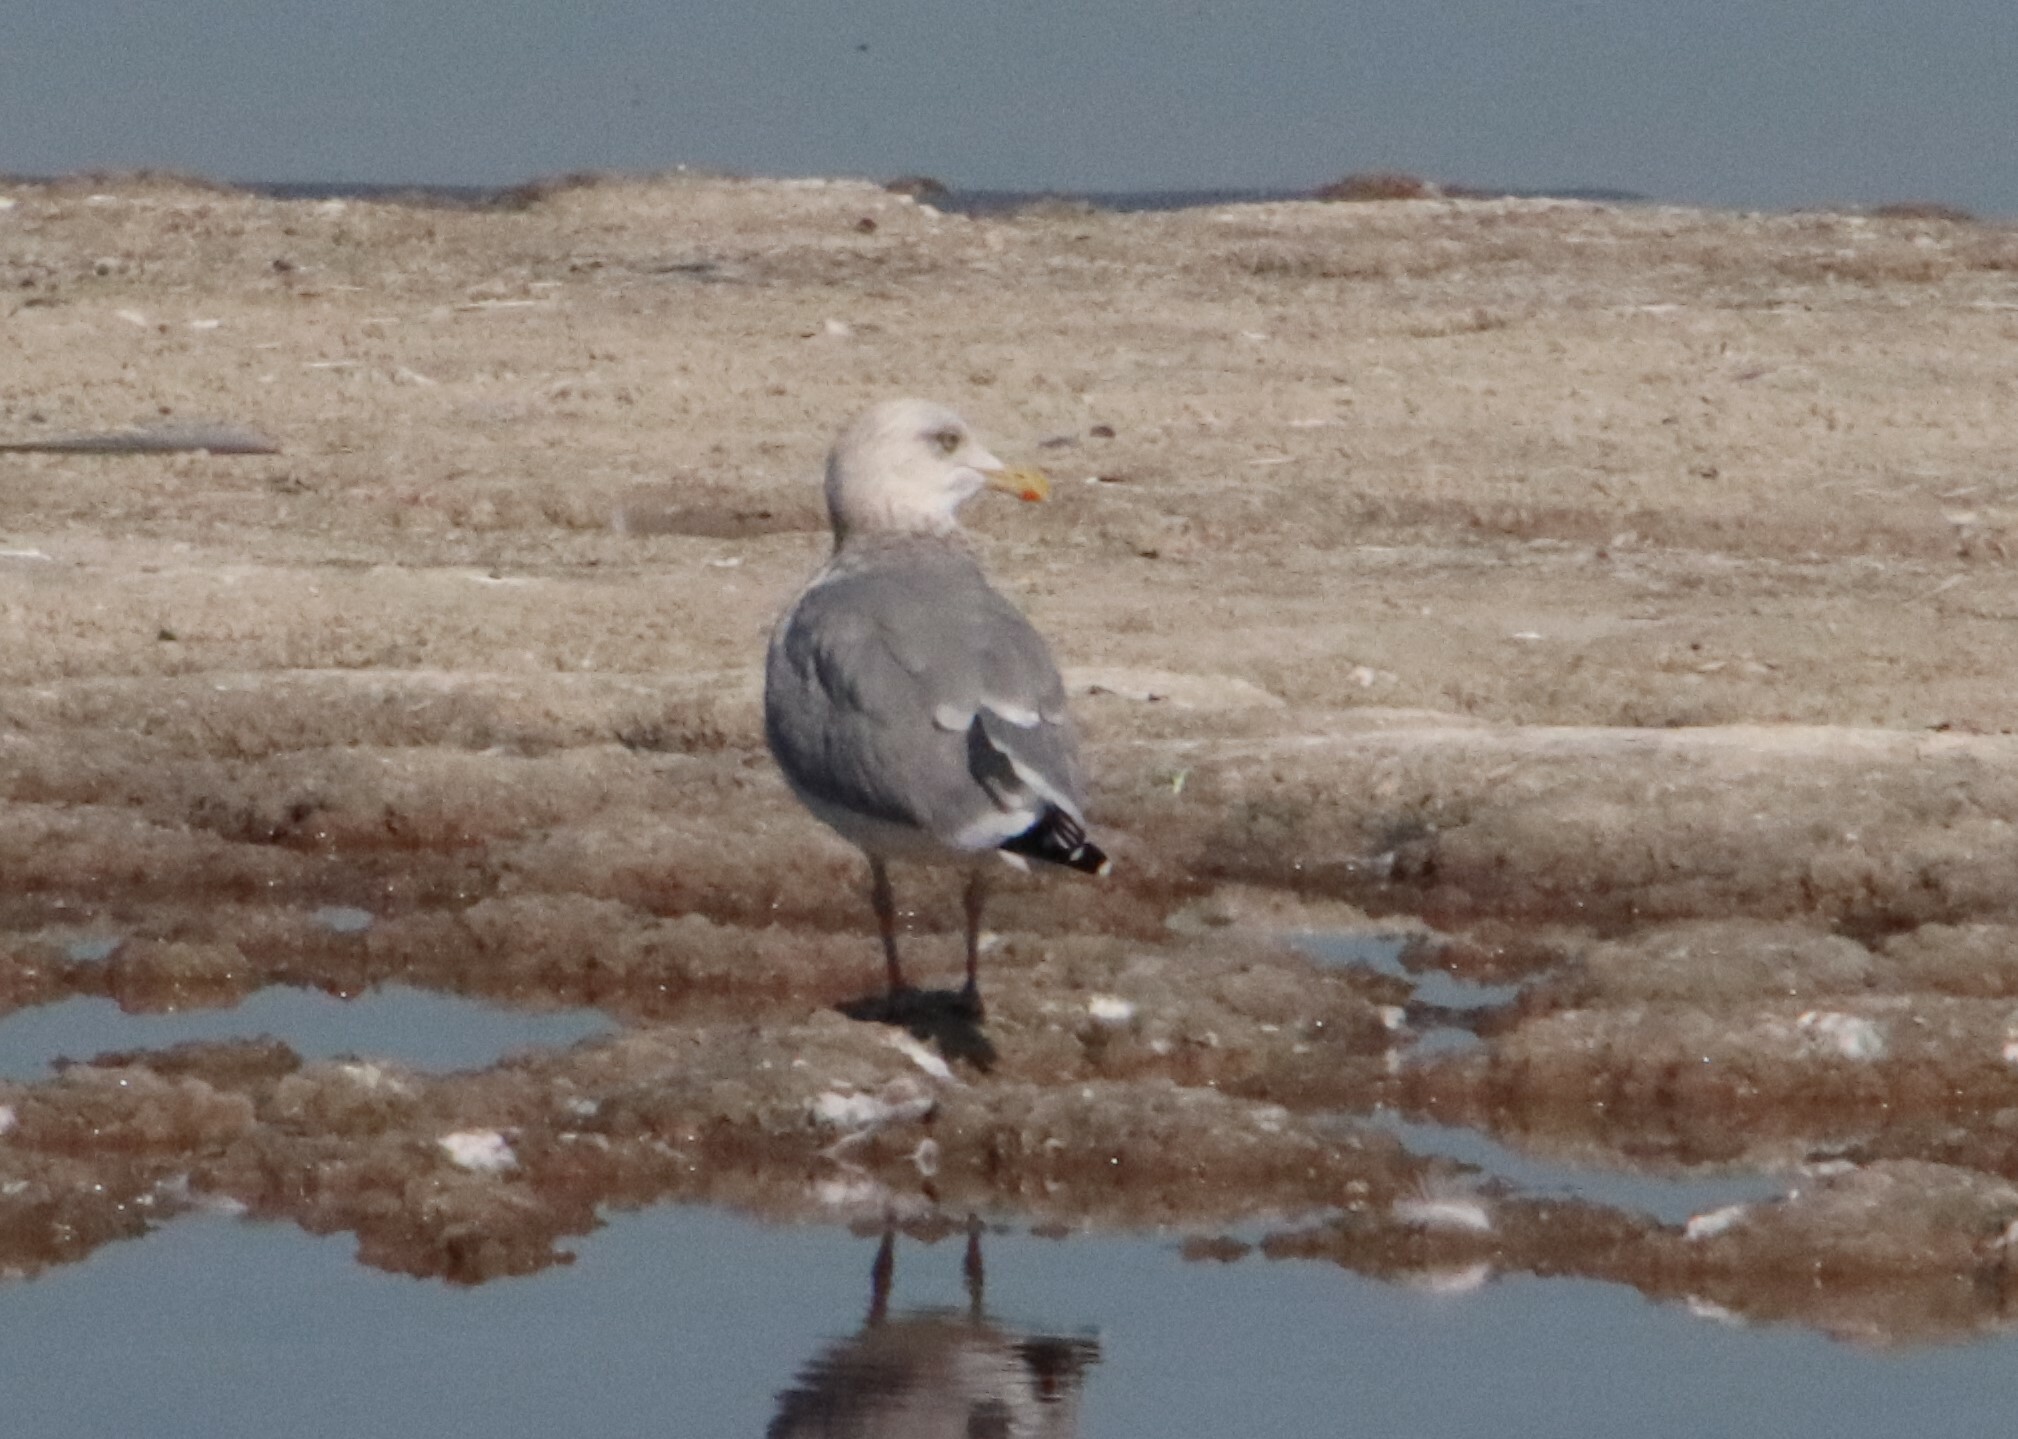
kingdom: Animalia
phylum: Chordata
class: Aves
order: Charadriiformes
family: Laridae
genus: Larus
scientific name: Larus argentatus
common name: Herring gull
